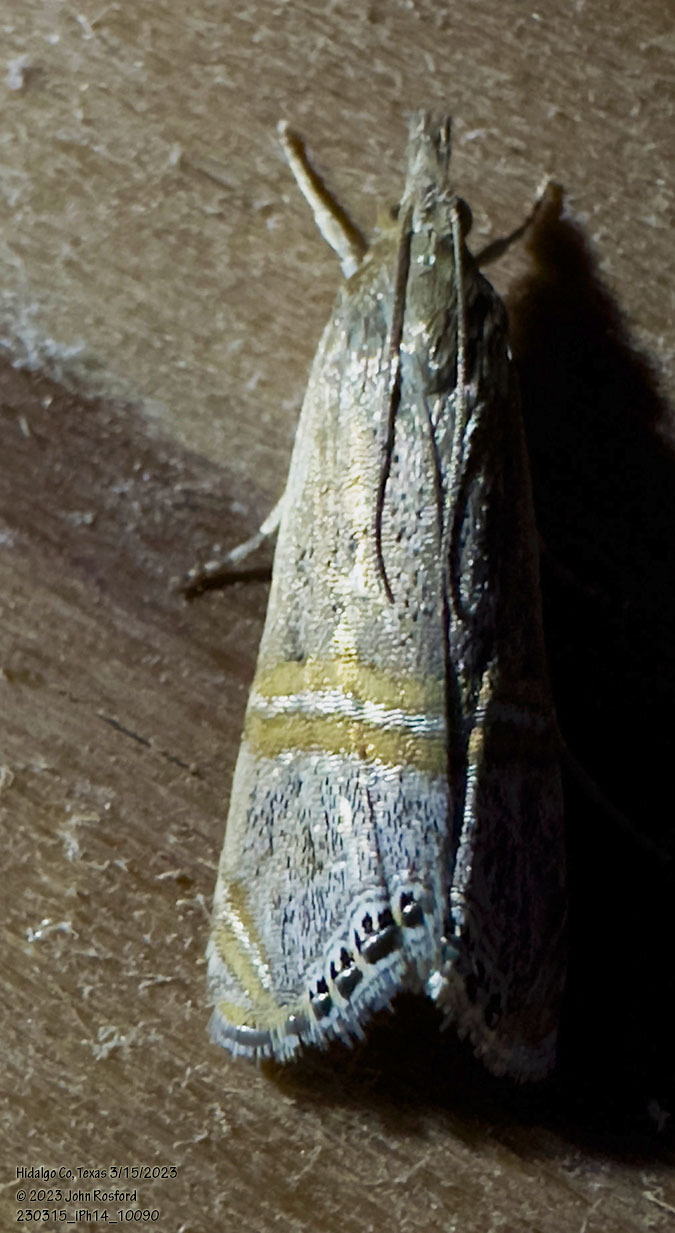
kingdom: Animalia
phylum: Arthropoda
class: Insecta
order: Lepidoptera
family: Crambidae
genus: Euchromius
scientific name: Euchromius ocellea
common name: Necklace veneer moth
